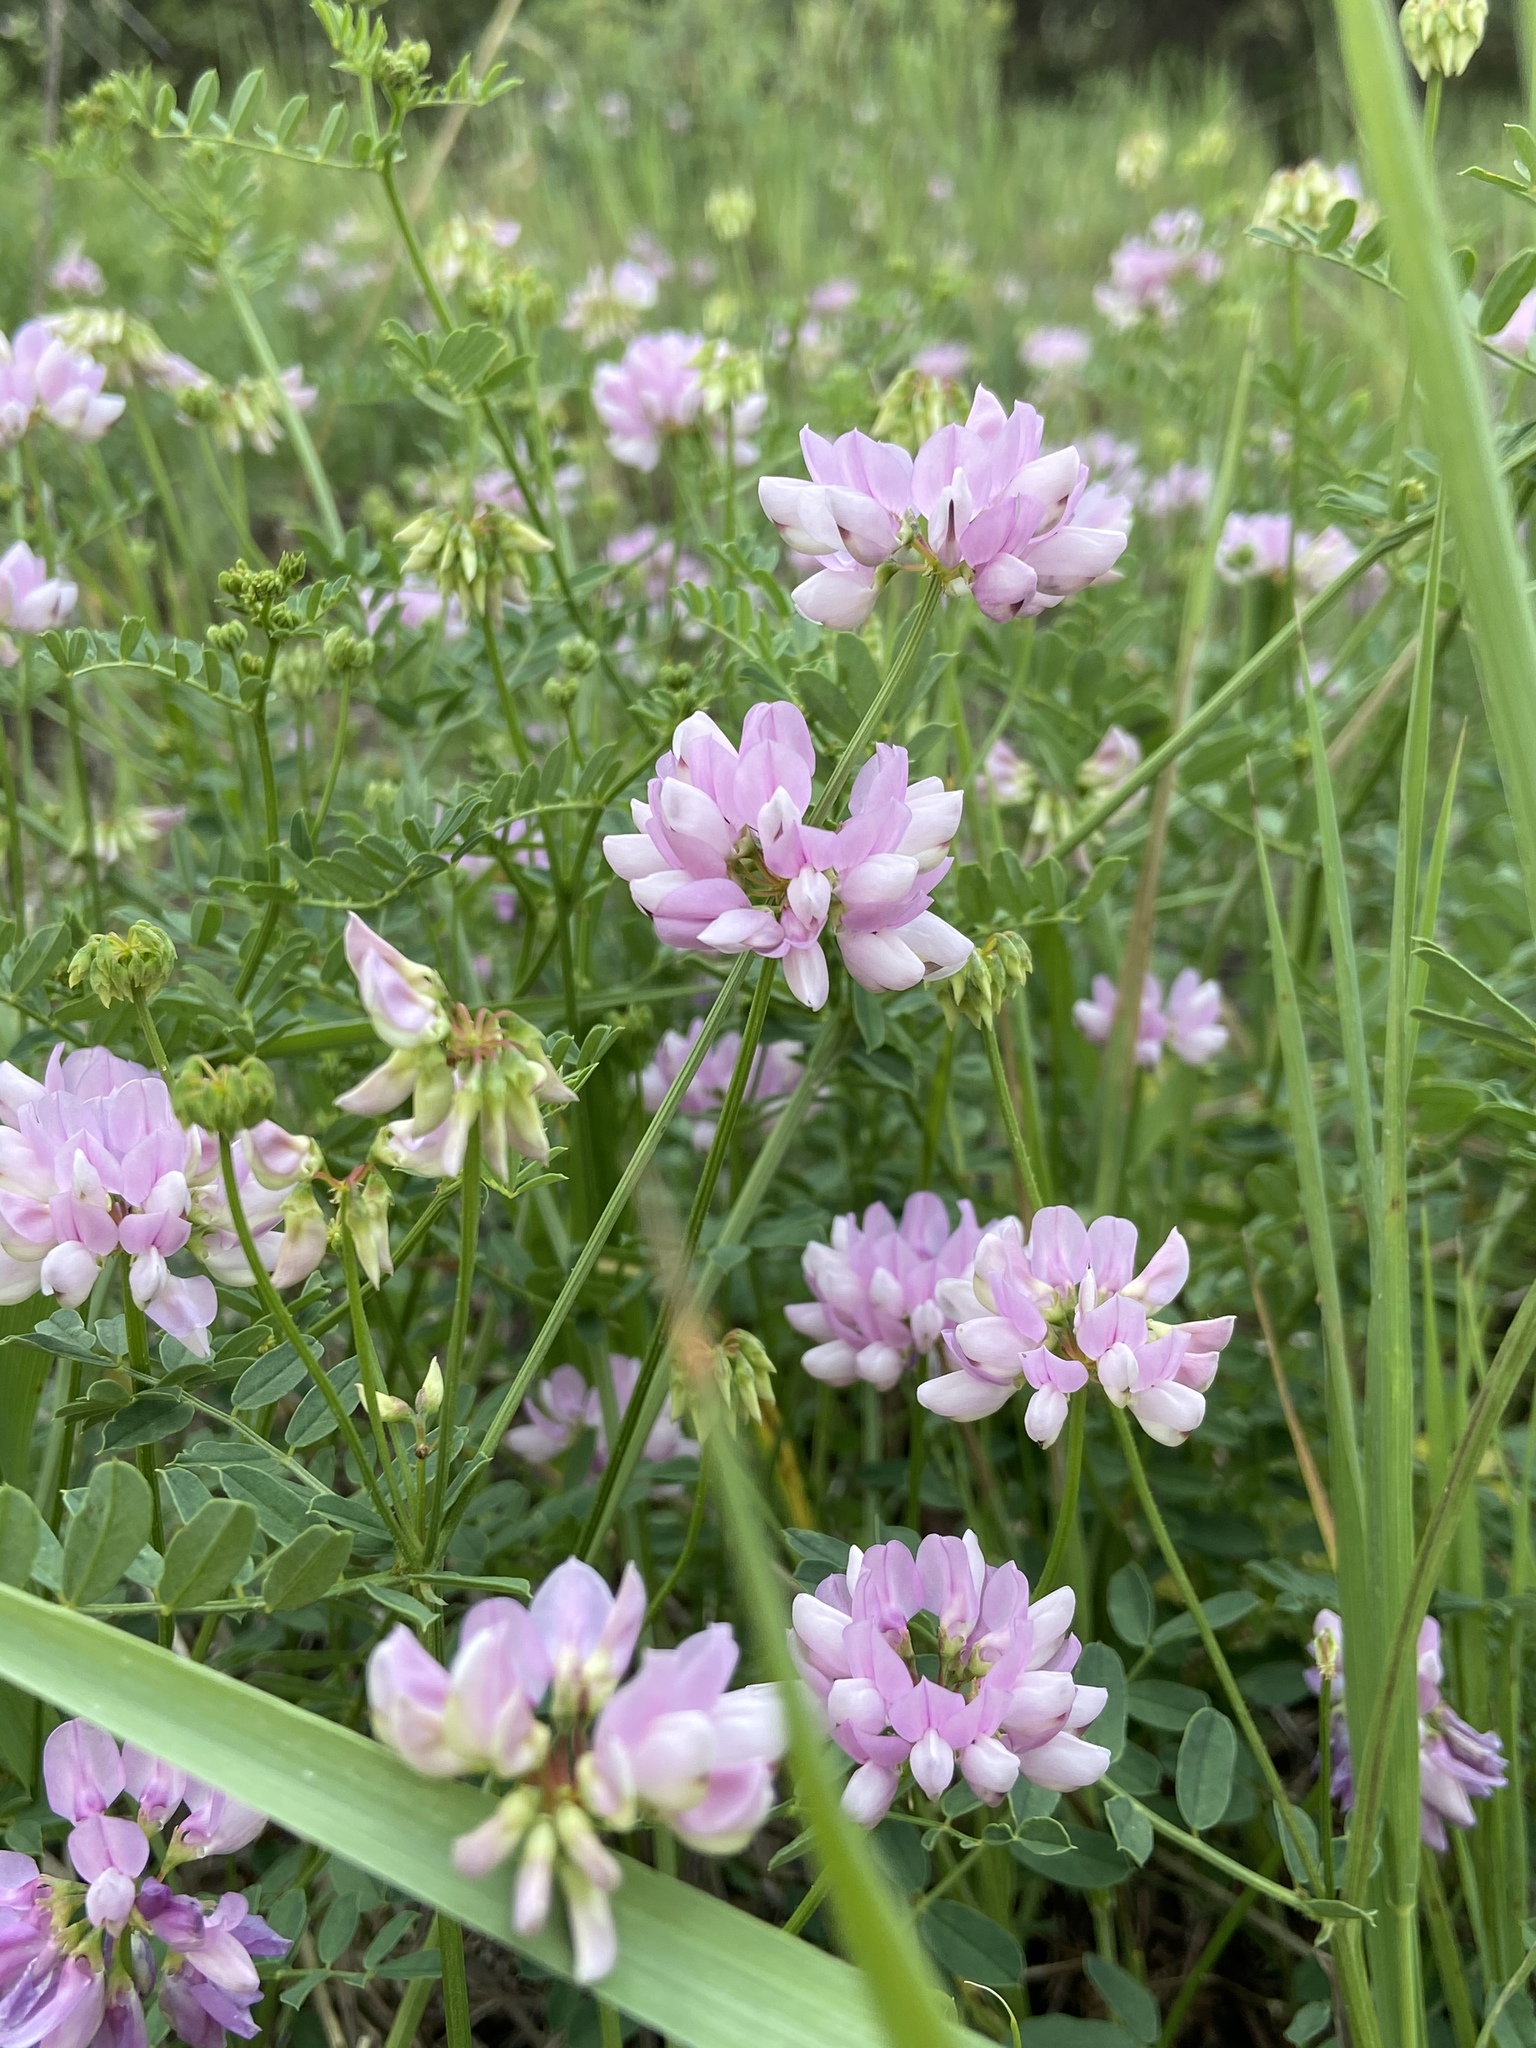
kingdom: Plantae
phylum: Tracheophyta
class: Magnoliopsida
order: Fabales
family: Fabaceae
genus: Coronilla
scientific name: Coronilla varia
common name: Crownvetch
